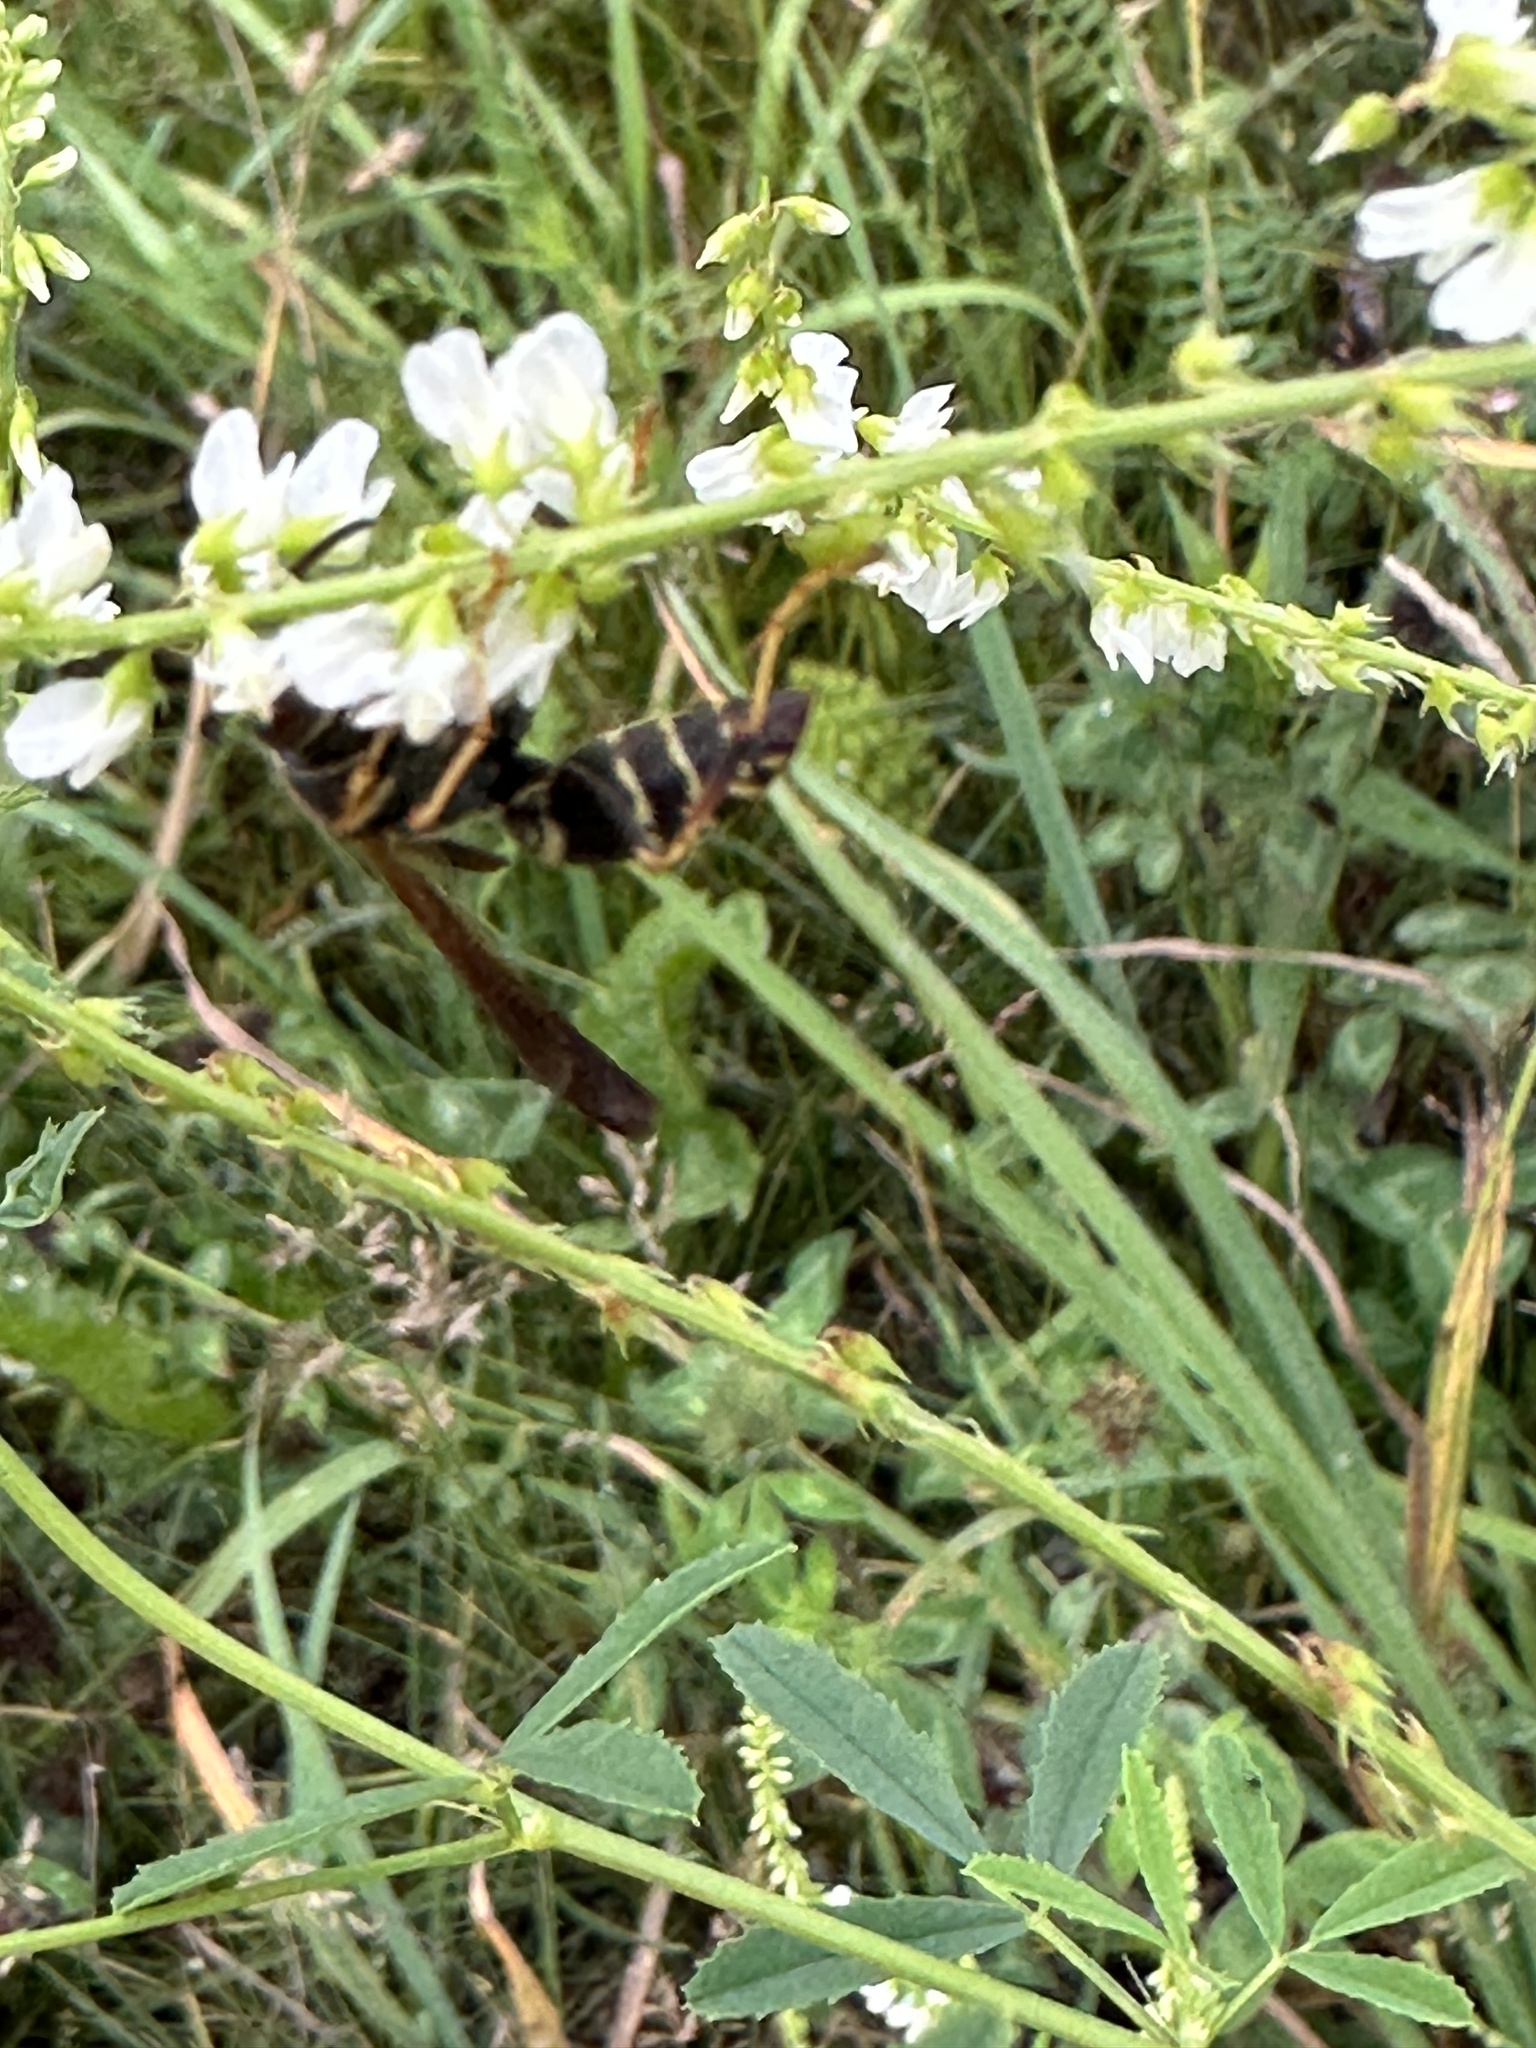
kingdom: Animalia
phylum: Arthropoda
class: Insecta
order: Hymenoptera
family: Eumenidae
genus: Polistes
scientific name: Polistes fuscatus
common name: Dark paper wasp
